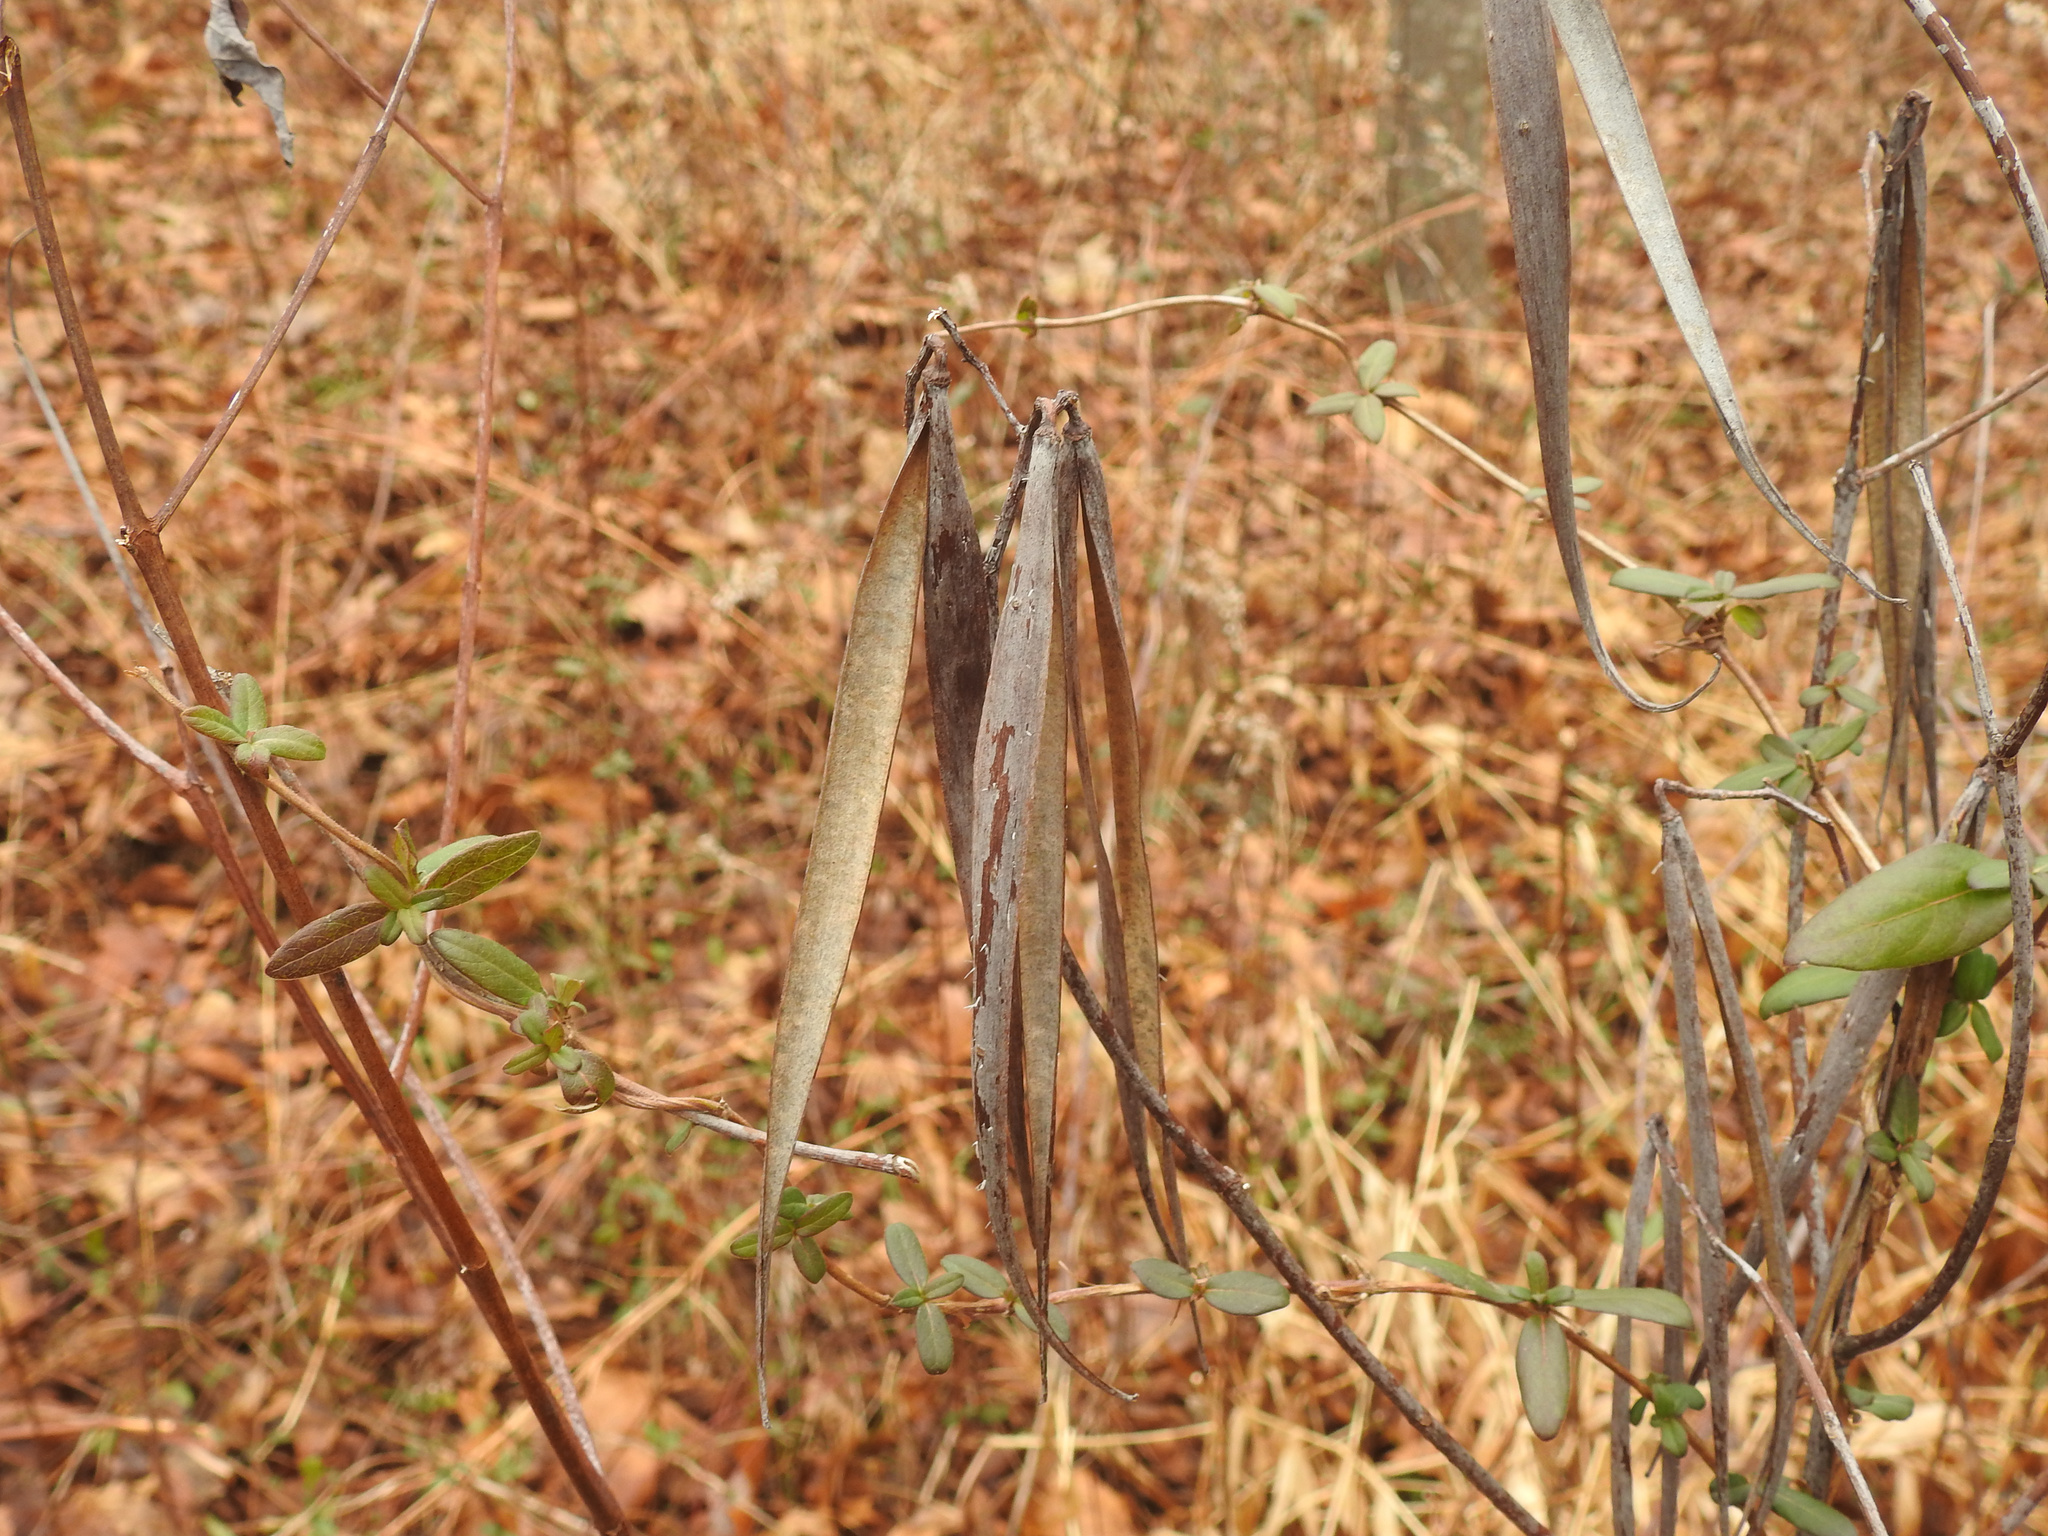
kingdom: Plantae
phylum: Tracheophyta
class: Magnoliopsida
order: Gentianales
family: Apocynaceae
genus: Apocynum
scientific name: Apocynum cannabinum
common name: Hemp dogbane
